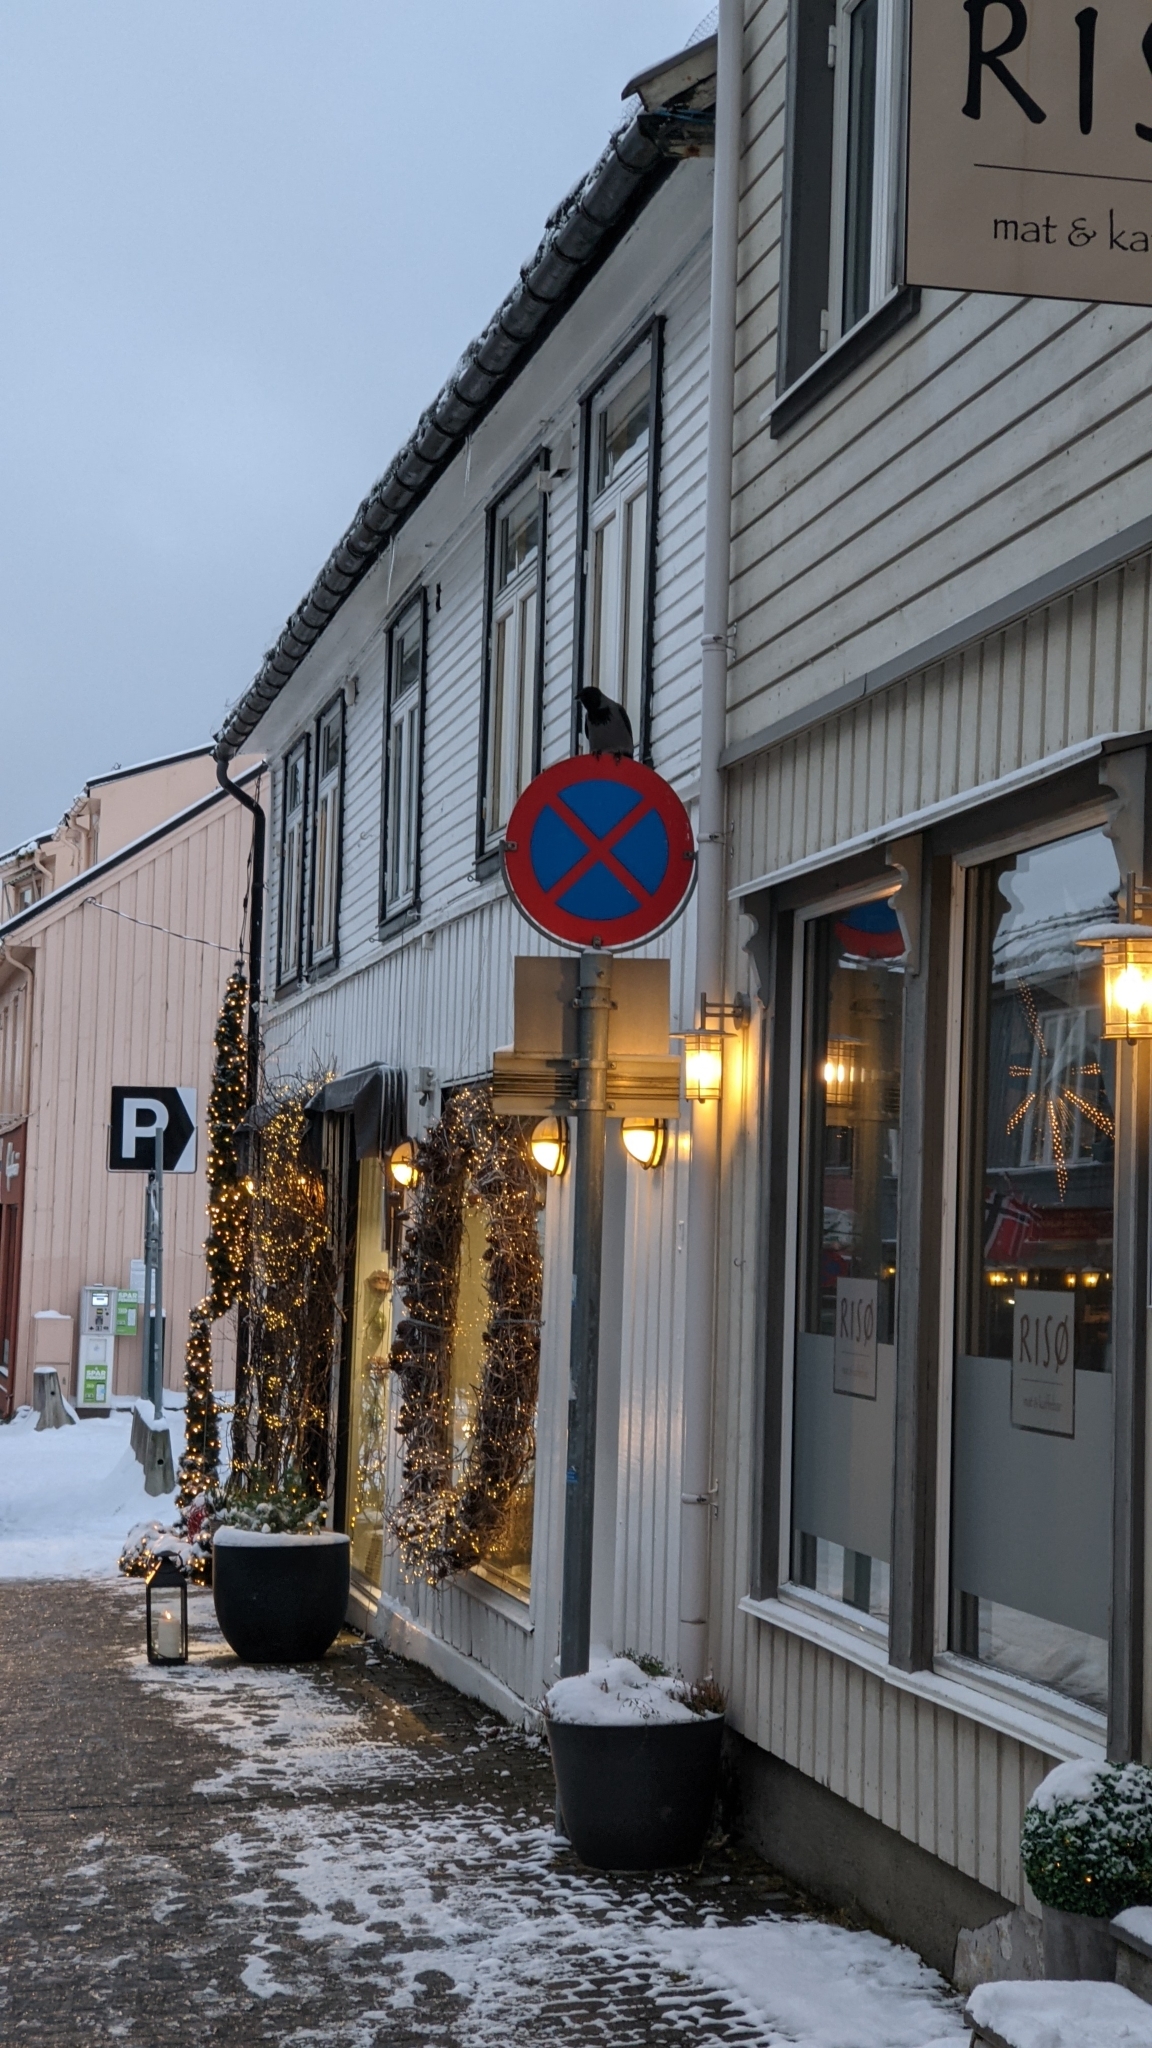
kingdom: Animalia
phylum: Chordata
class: Aves
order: Passeriformes
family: Corvidae
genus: Corvus
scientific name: Corvus cornix
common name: Hooded crow
